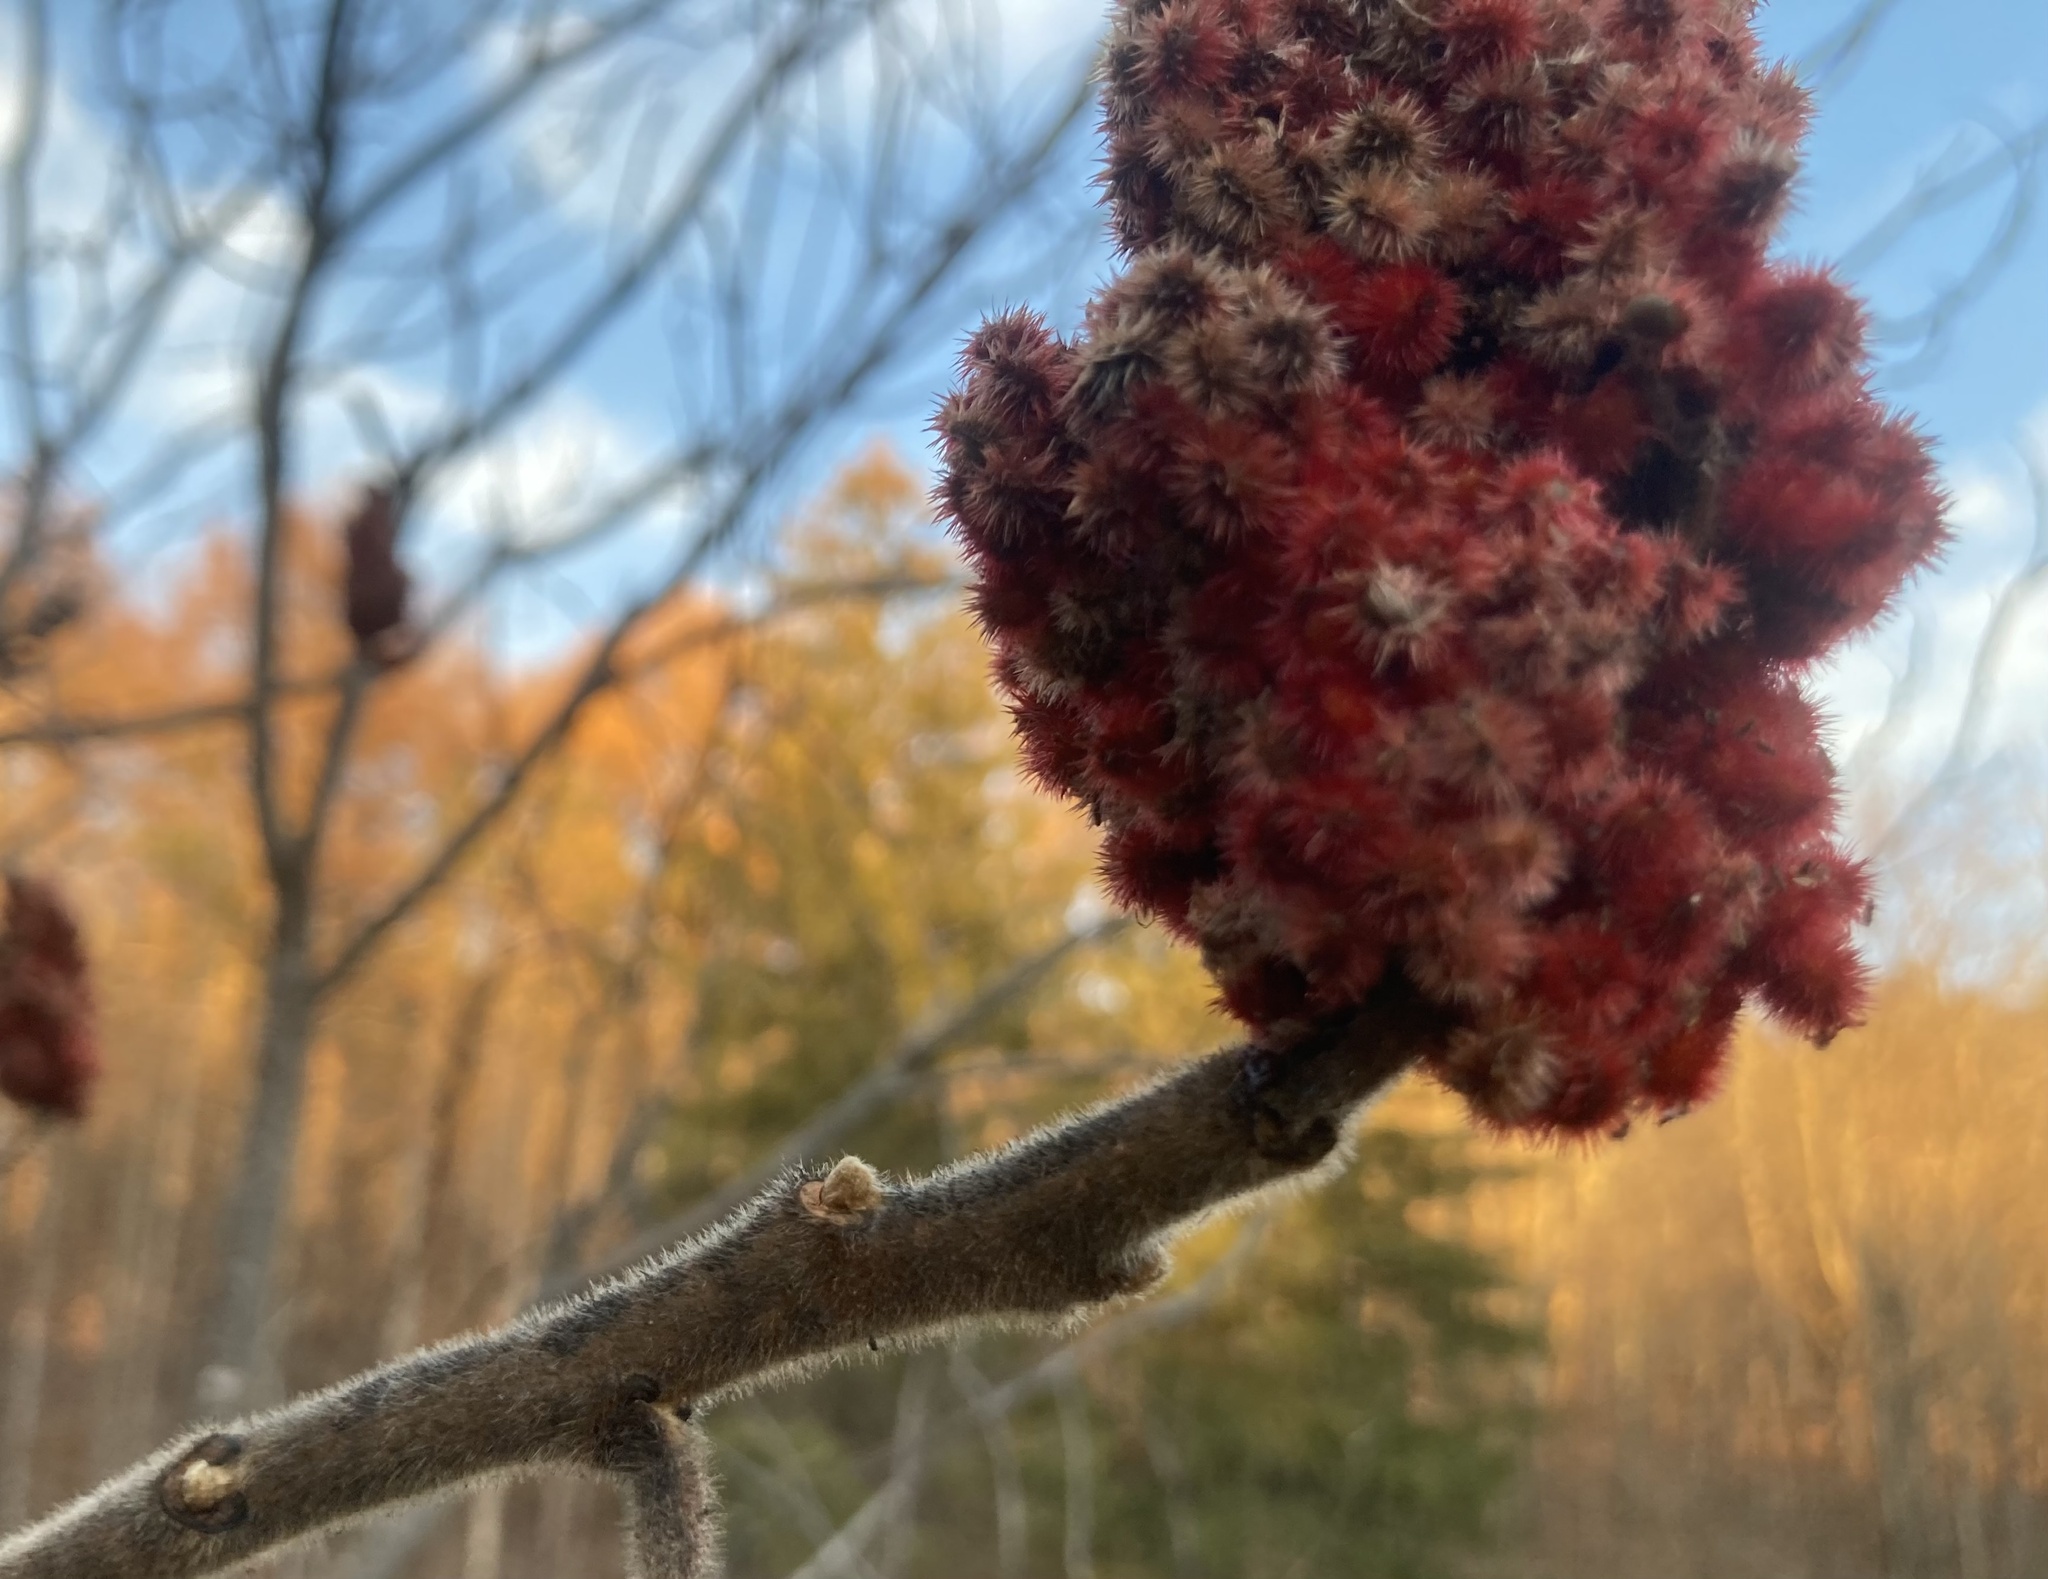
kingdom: Plantae
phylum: Tracheophyta
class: Magnoliopsida
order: Sapindales
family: Anacardiaceae
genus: Rhus
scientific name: Rhus typhina
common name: Staghorn sumac
